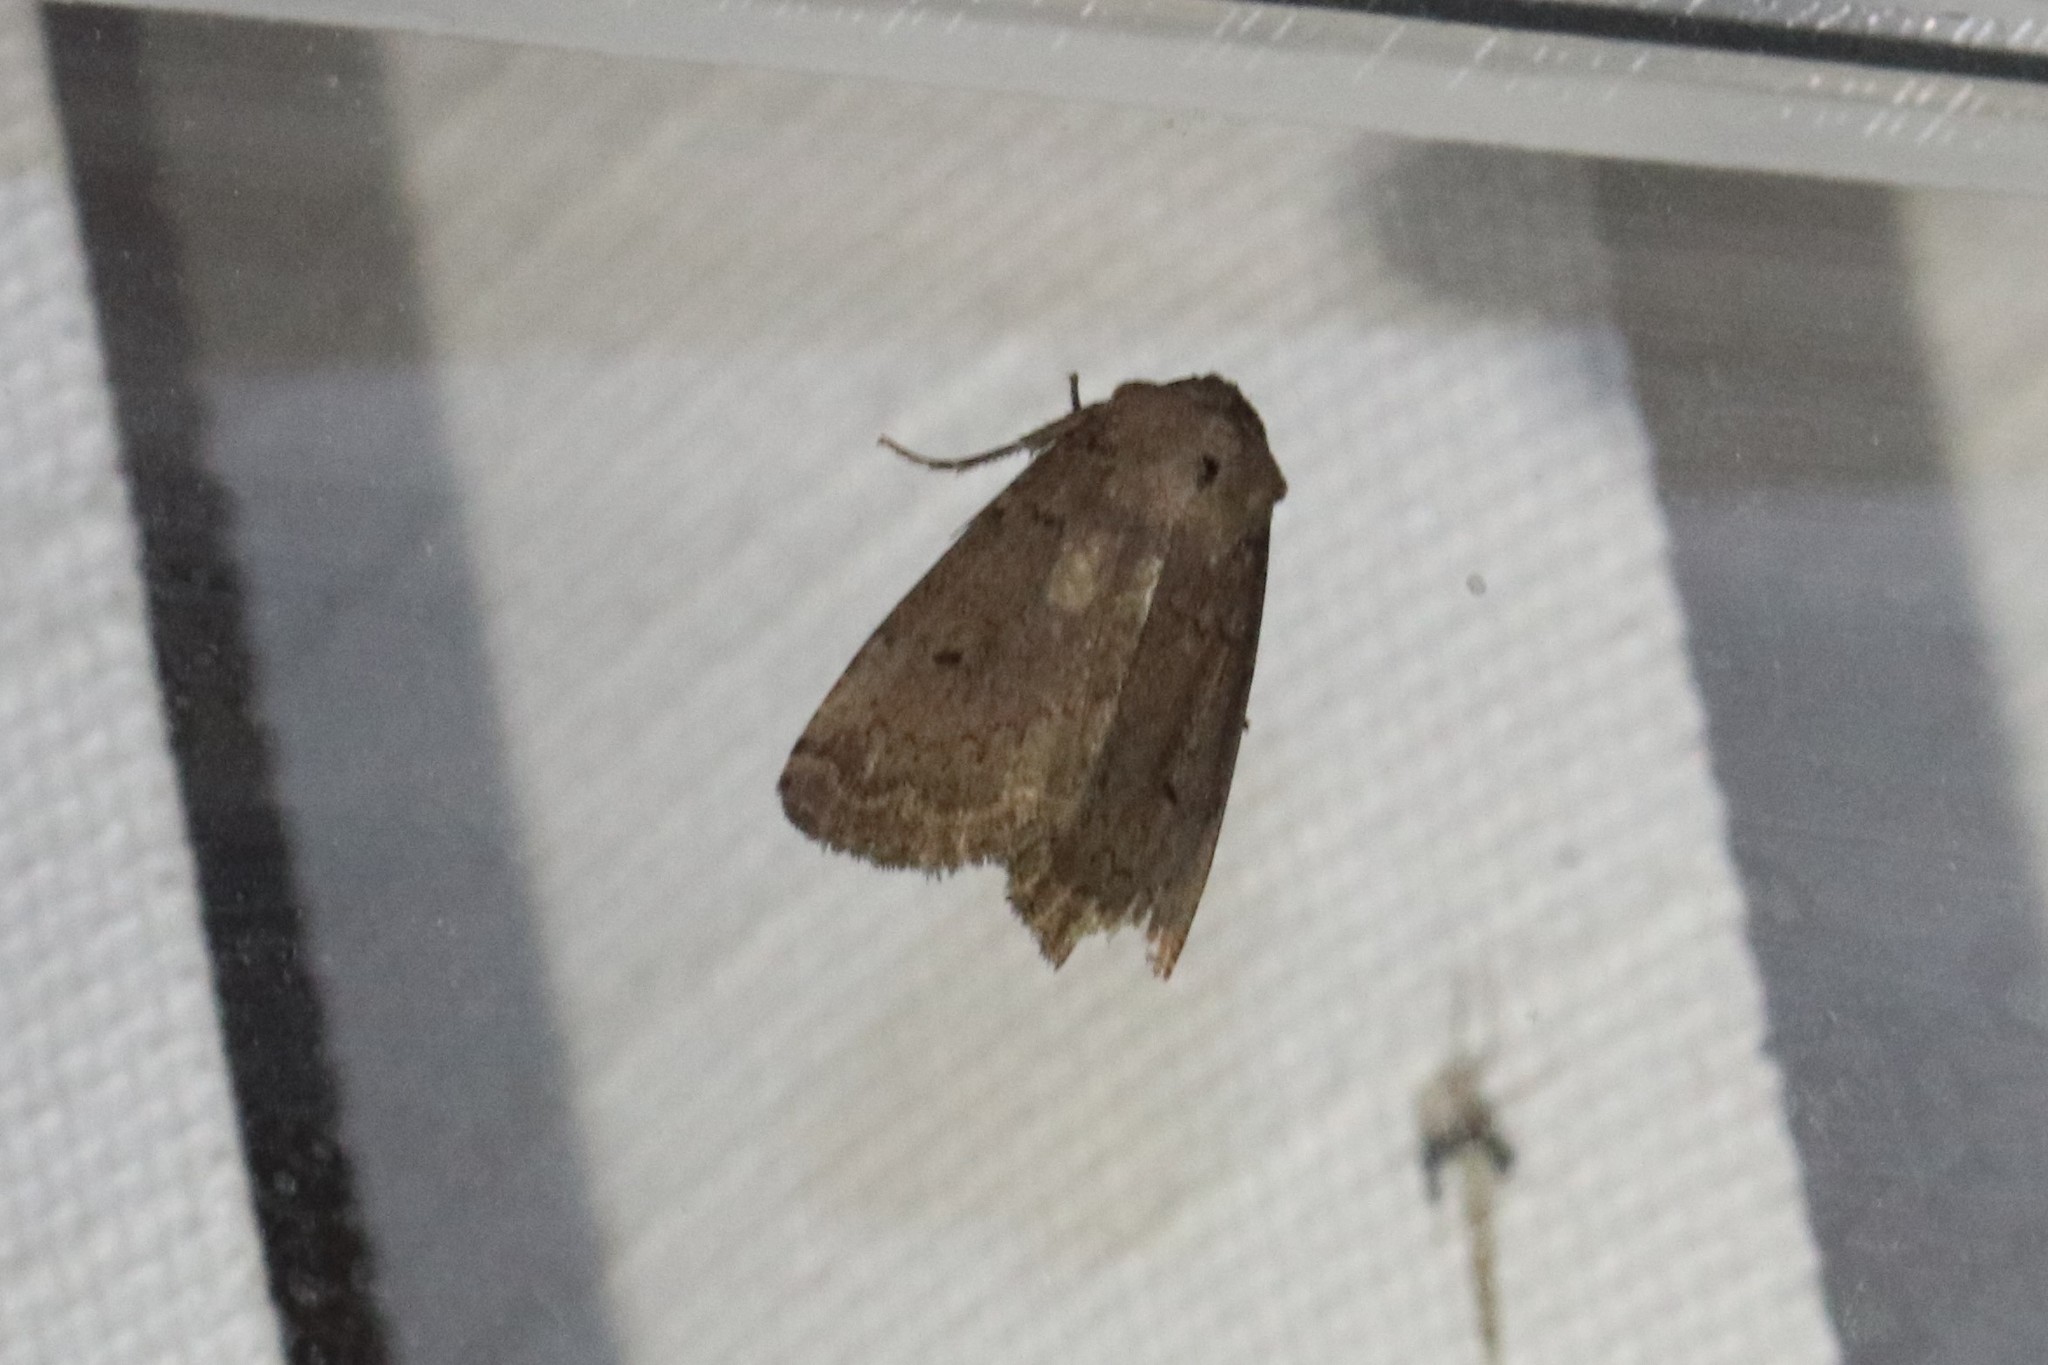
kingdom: Animalia
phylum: Arthropoda
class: Insecta
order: Lepidoptera
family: Noctuidae
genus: Graphiphora
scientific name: Graphiphora augur
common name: Double dart
